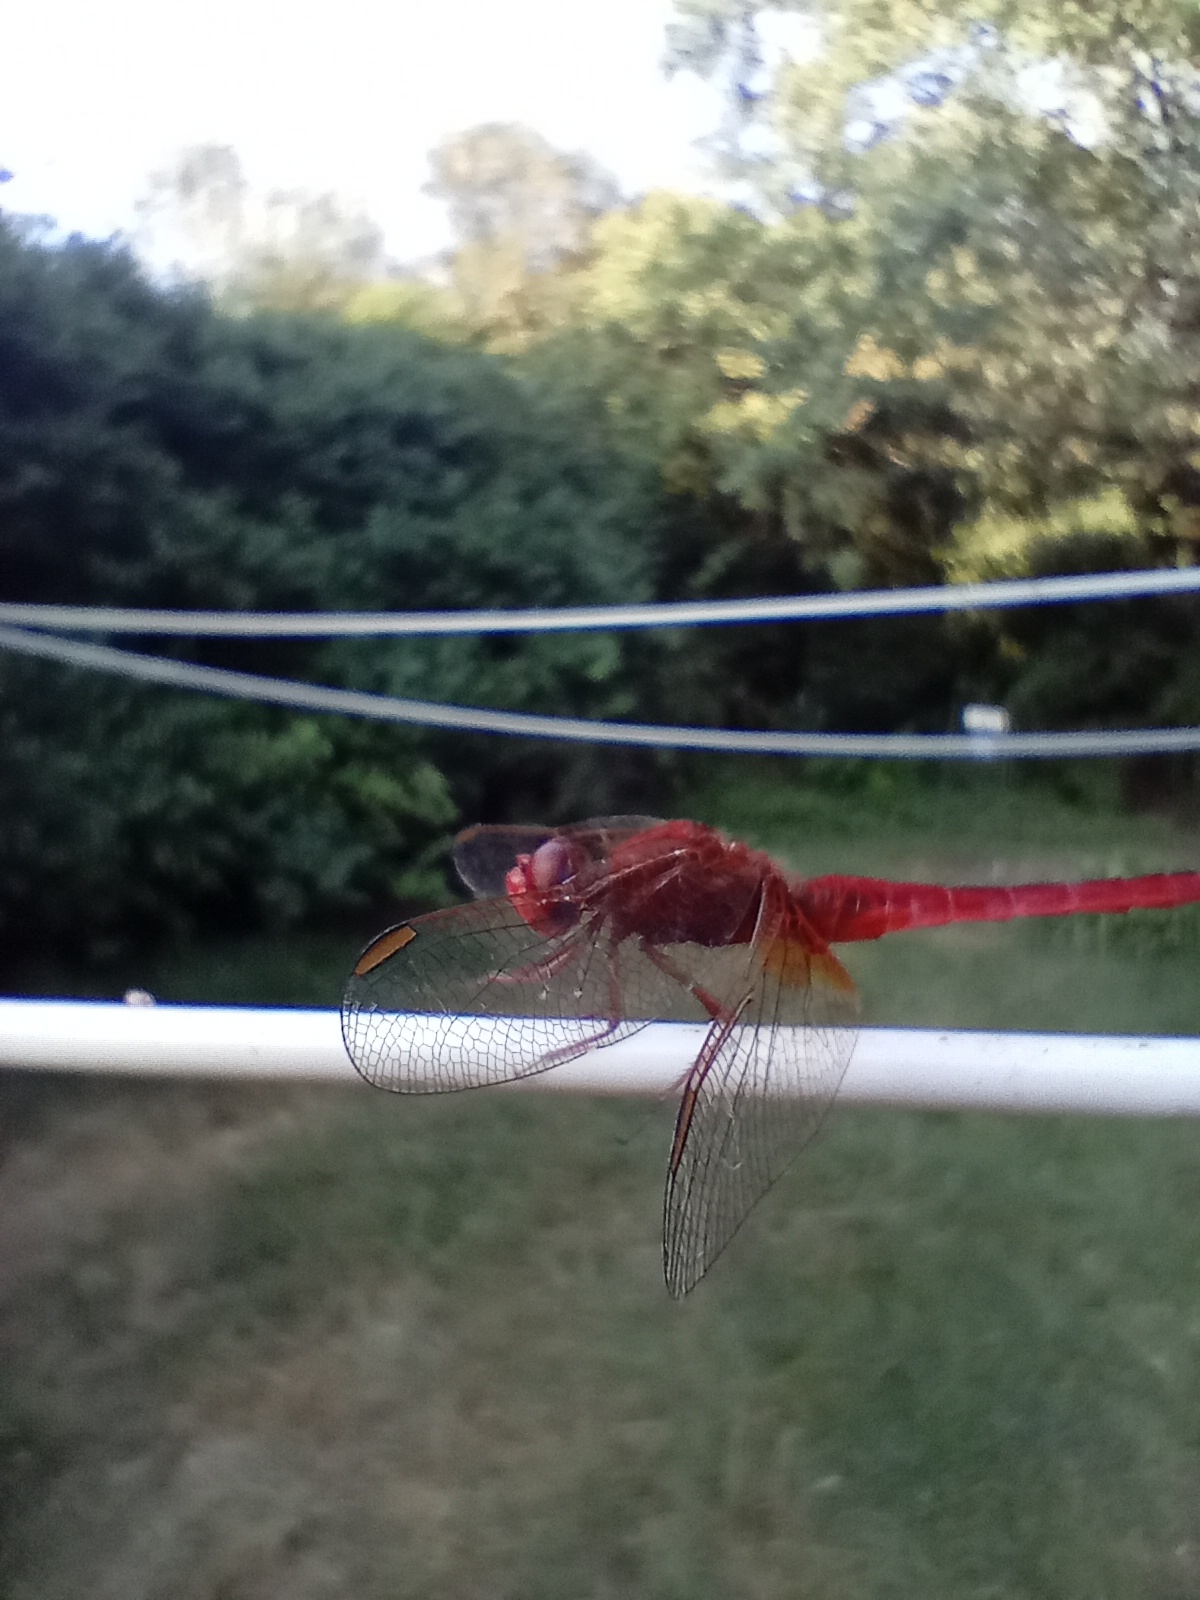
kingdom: Animalia
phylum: Arthropoda
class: Insecta
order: Odonata
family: Libellulidae
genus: Crocothemis
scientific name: Crocothemis erythraea
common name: Scarlet dragonfly
